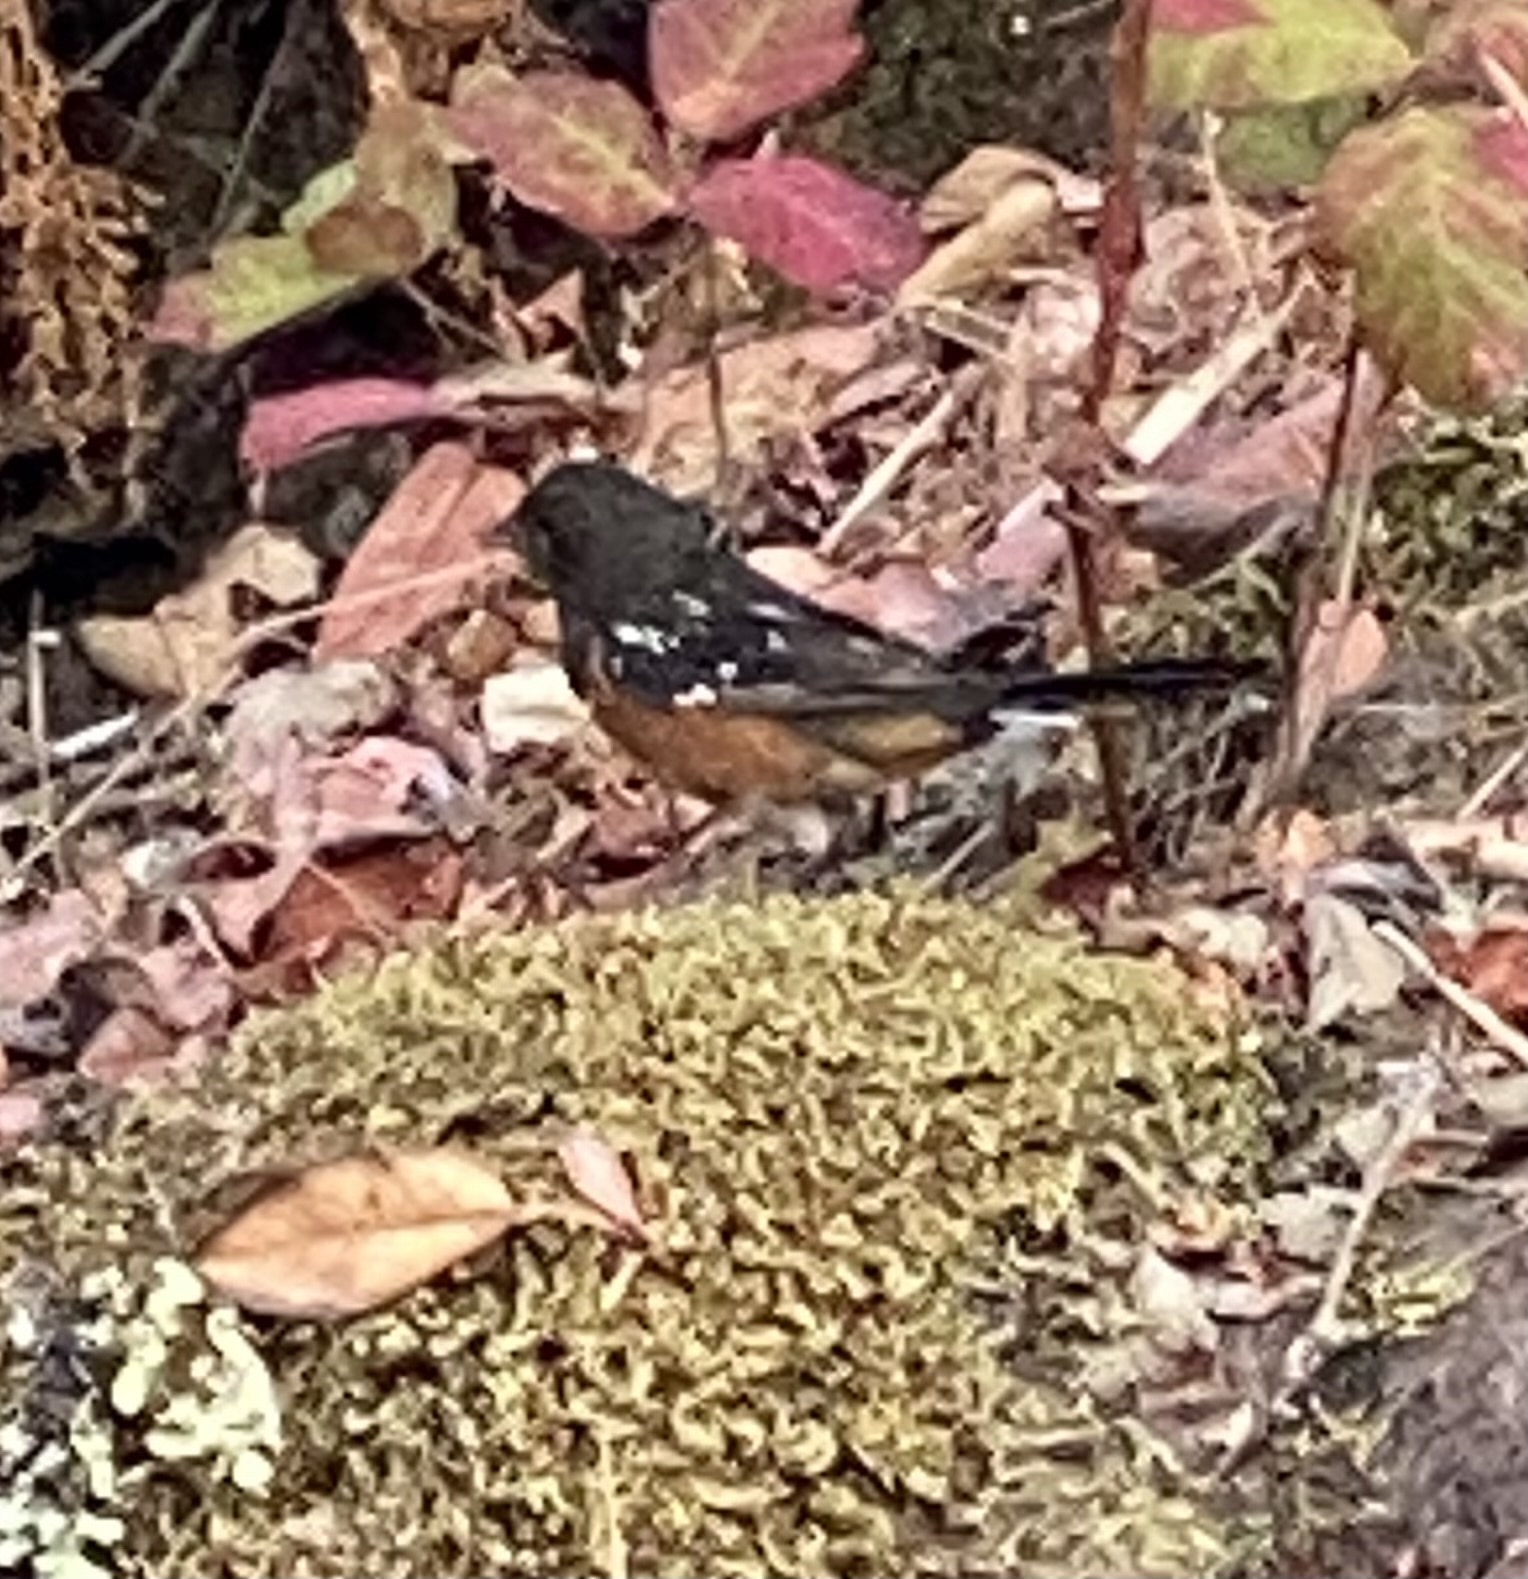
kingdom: Animalia
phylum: Chordata
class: Aves
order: Passeriformes
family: Passerellidae
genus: Pipilo
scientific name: Pipilo maculatus
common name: Spotted towhee
